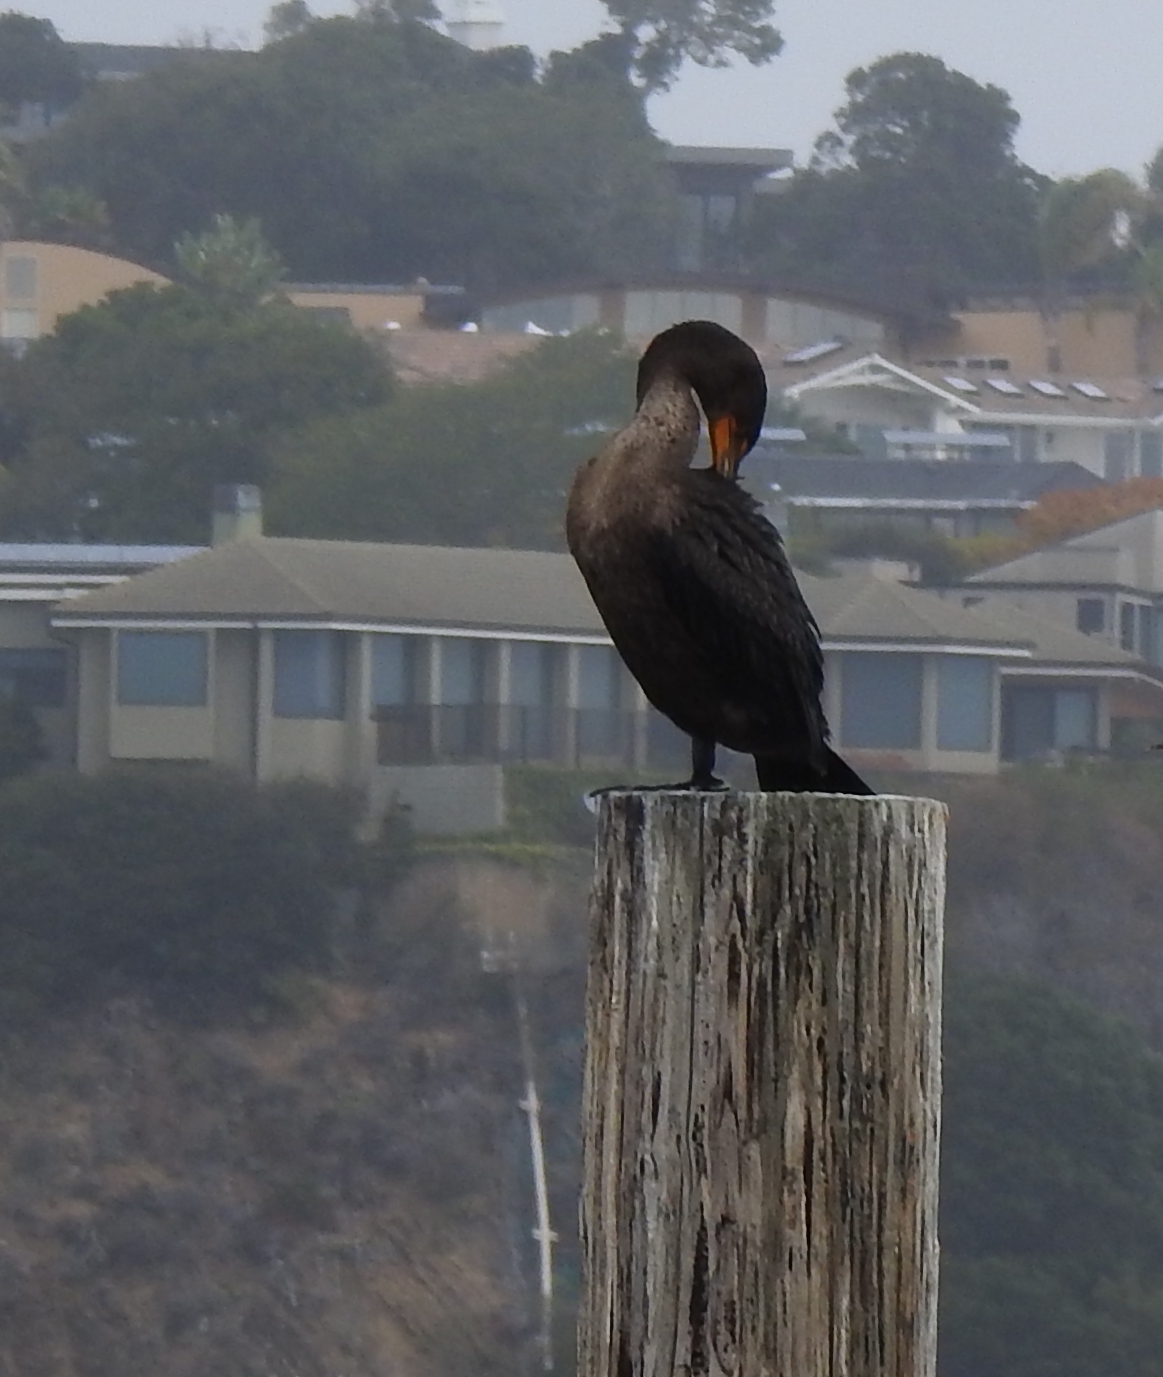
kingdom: Animalia
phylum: Chordata
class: Aves
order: Suliformes
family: Phalacrocoracidae
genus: Phalacrocorax
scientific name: Phalacrocorax auritus
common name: Double-crested cormorant
